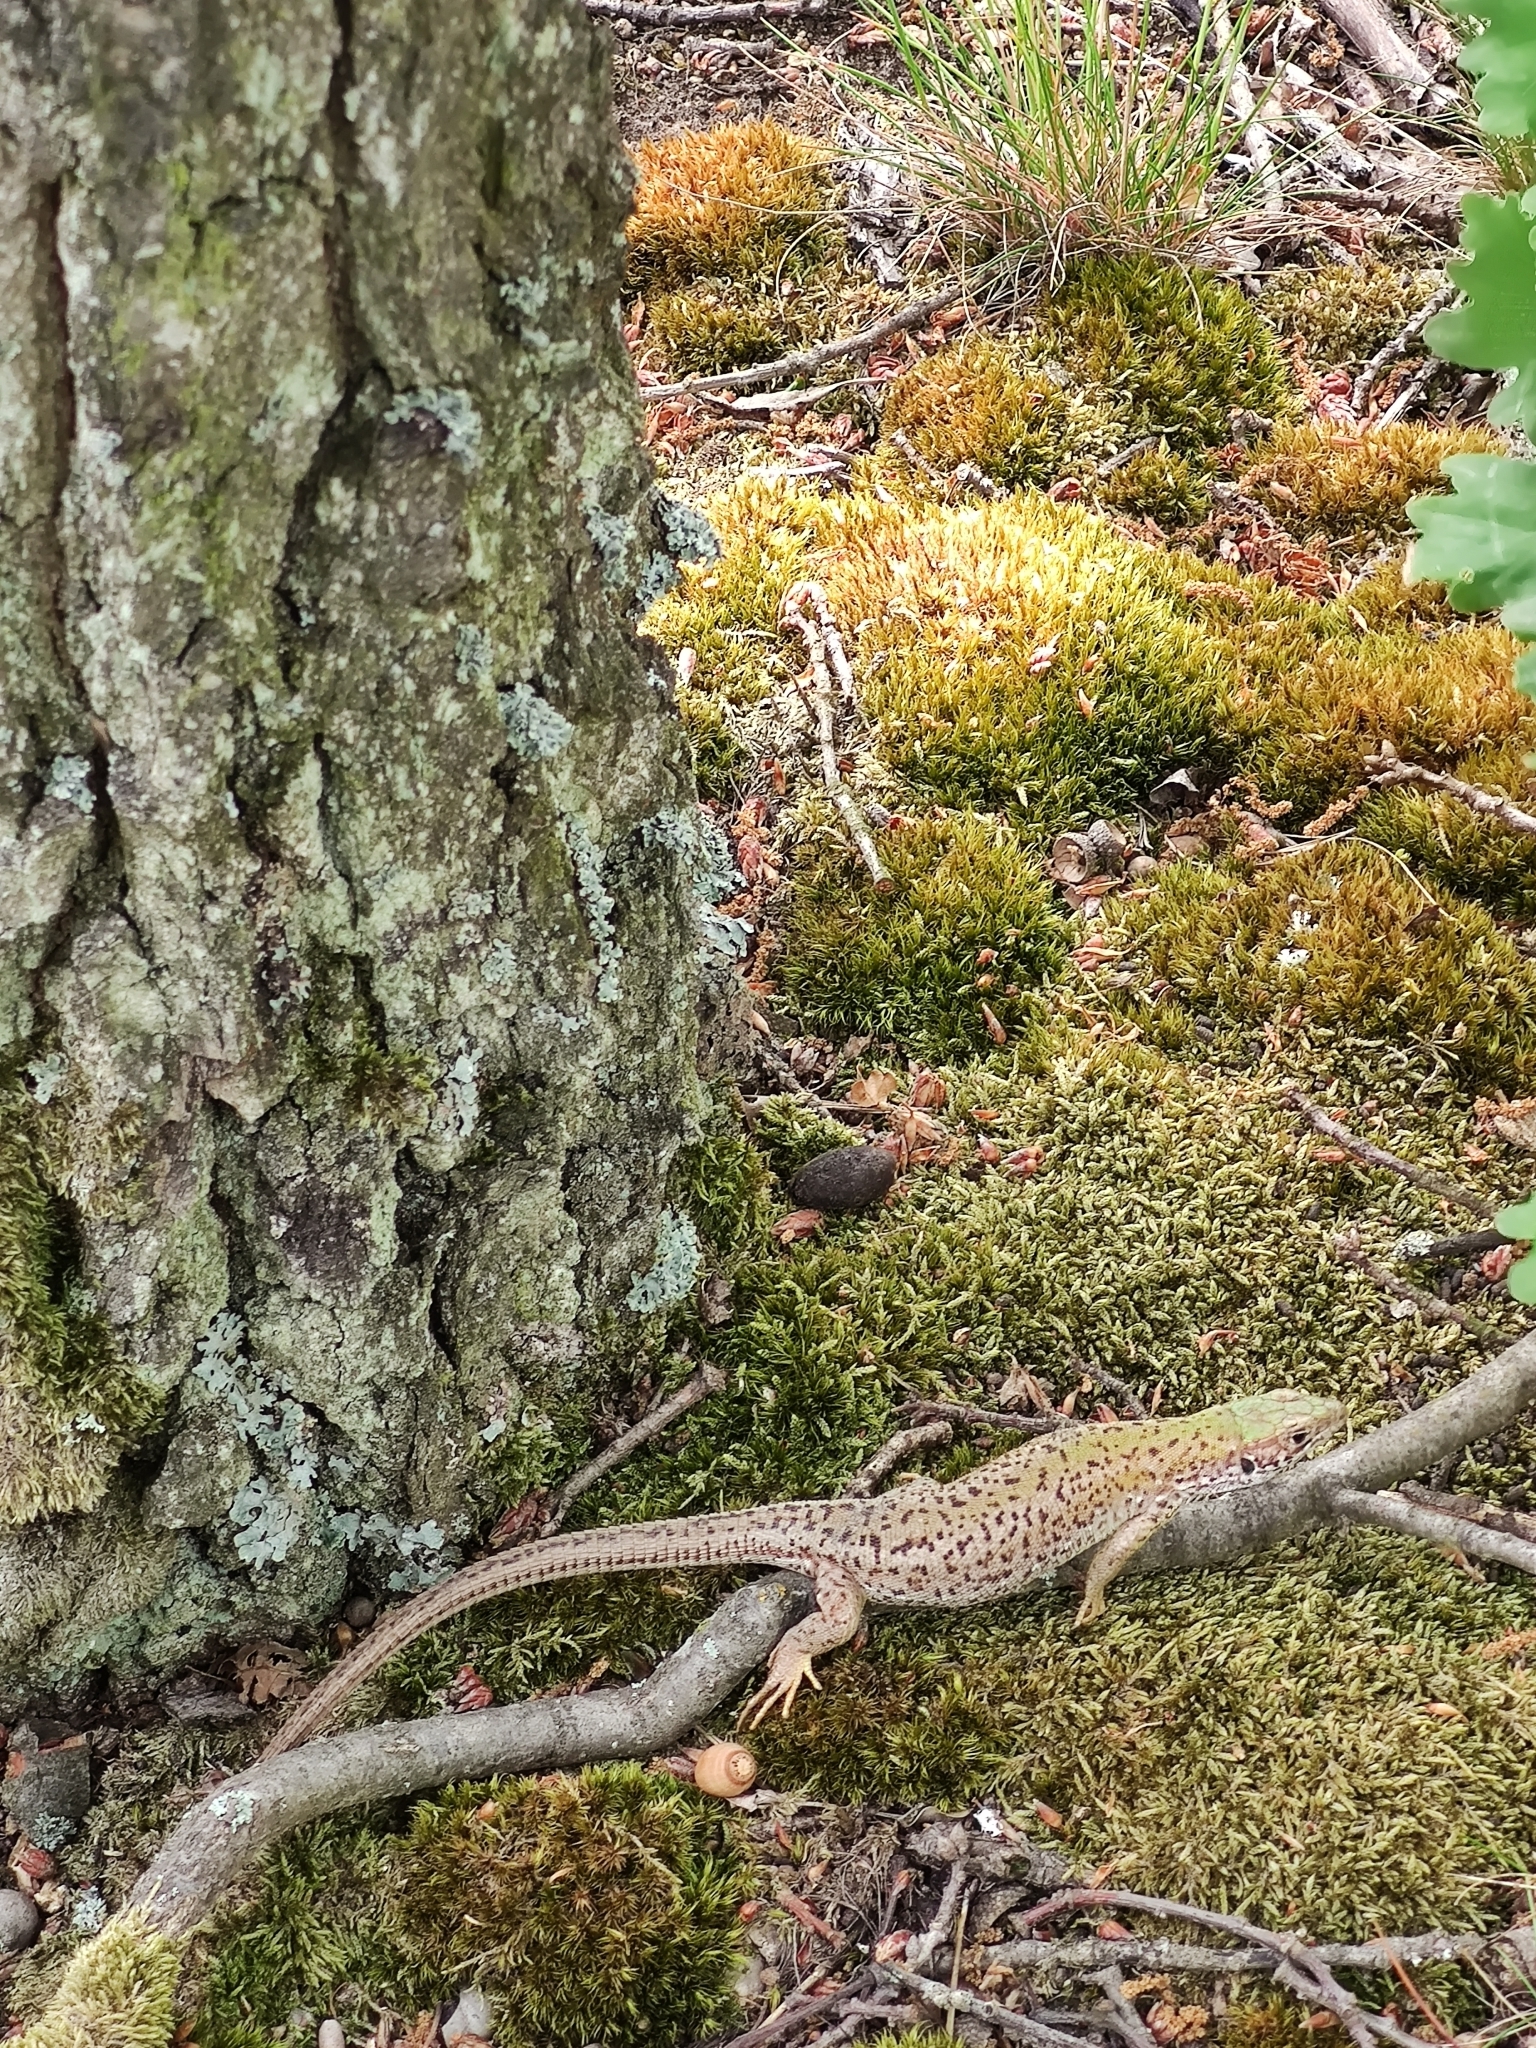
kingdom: Animalia
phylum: Chordata
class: Squamata
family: Lacertidae
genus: Lacerta
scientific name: Lacerta viridis
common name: European green lizard
